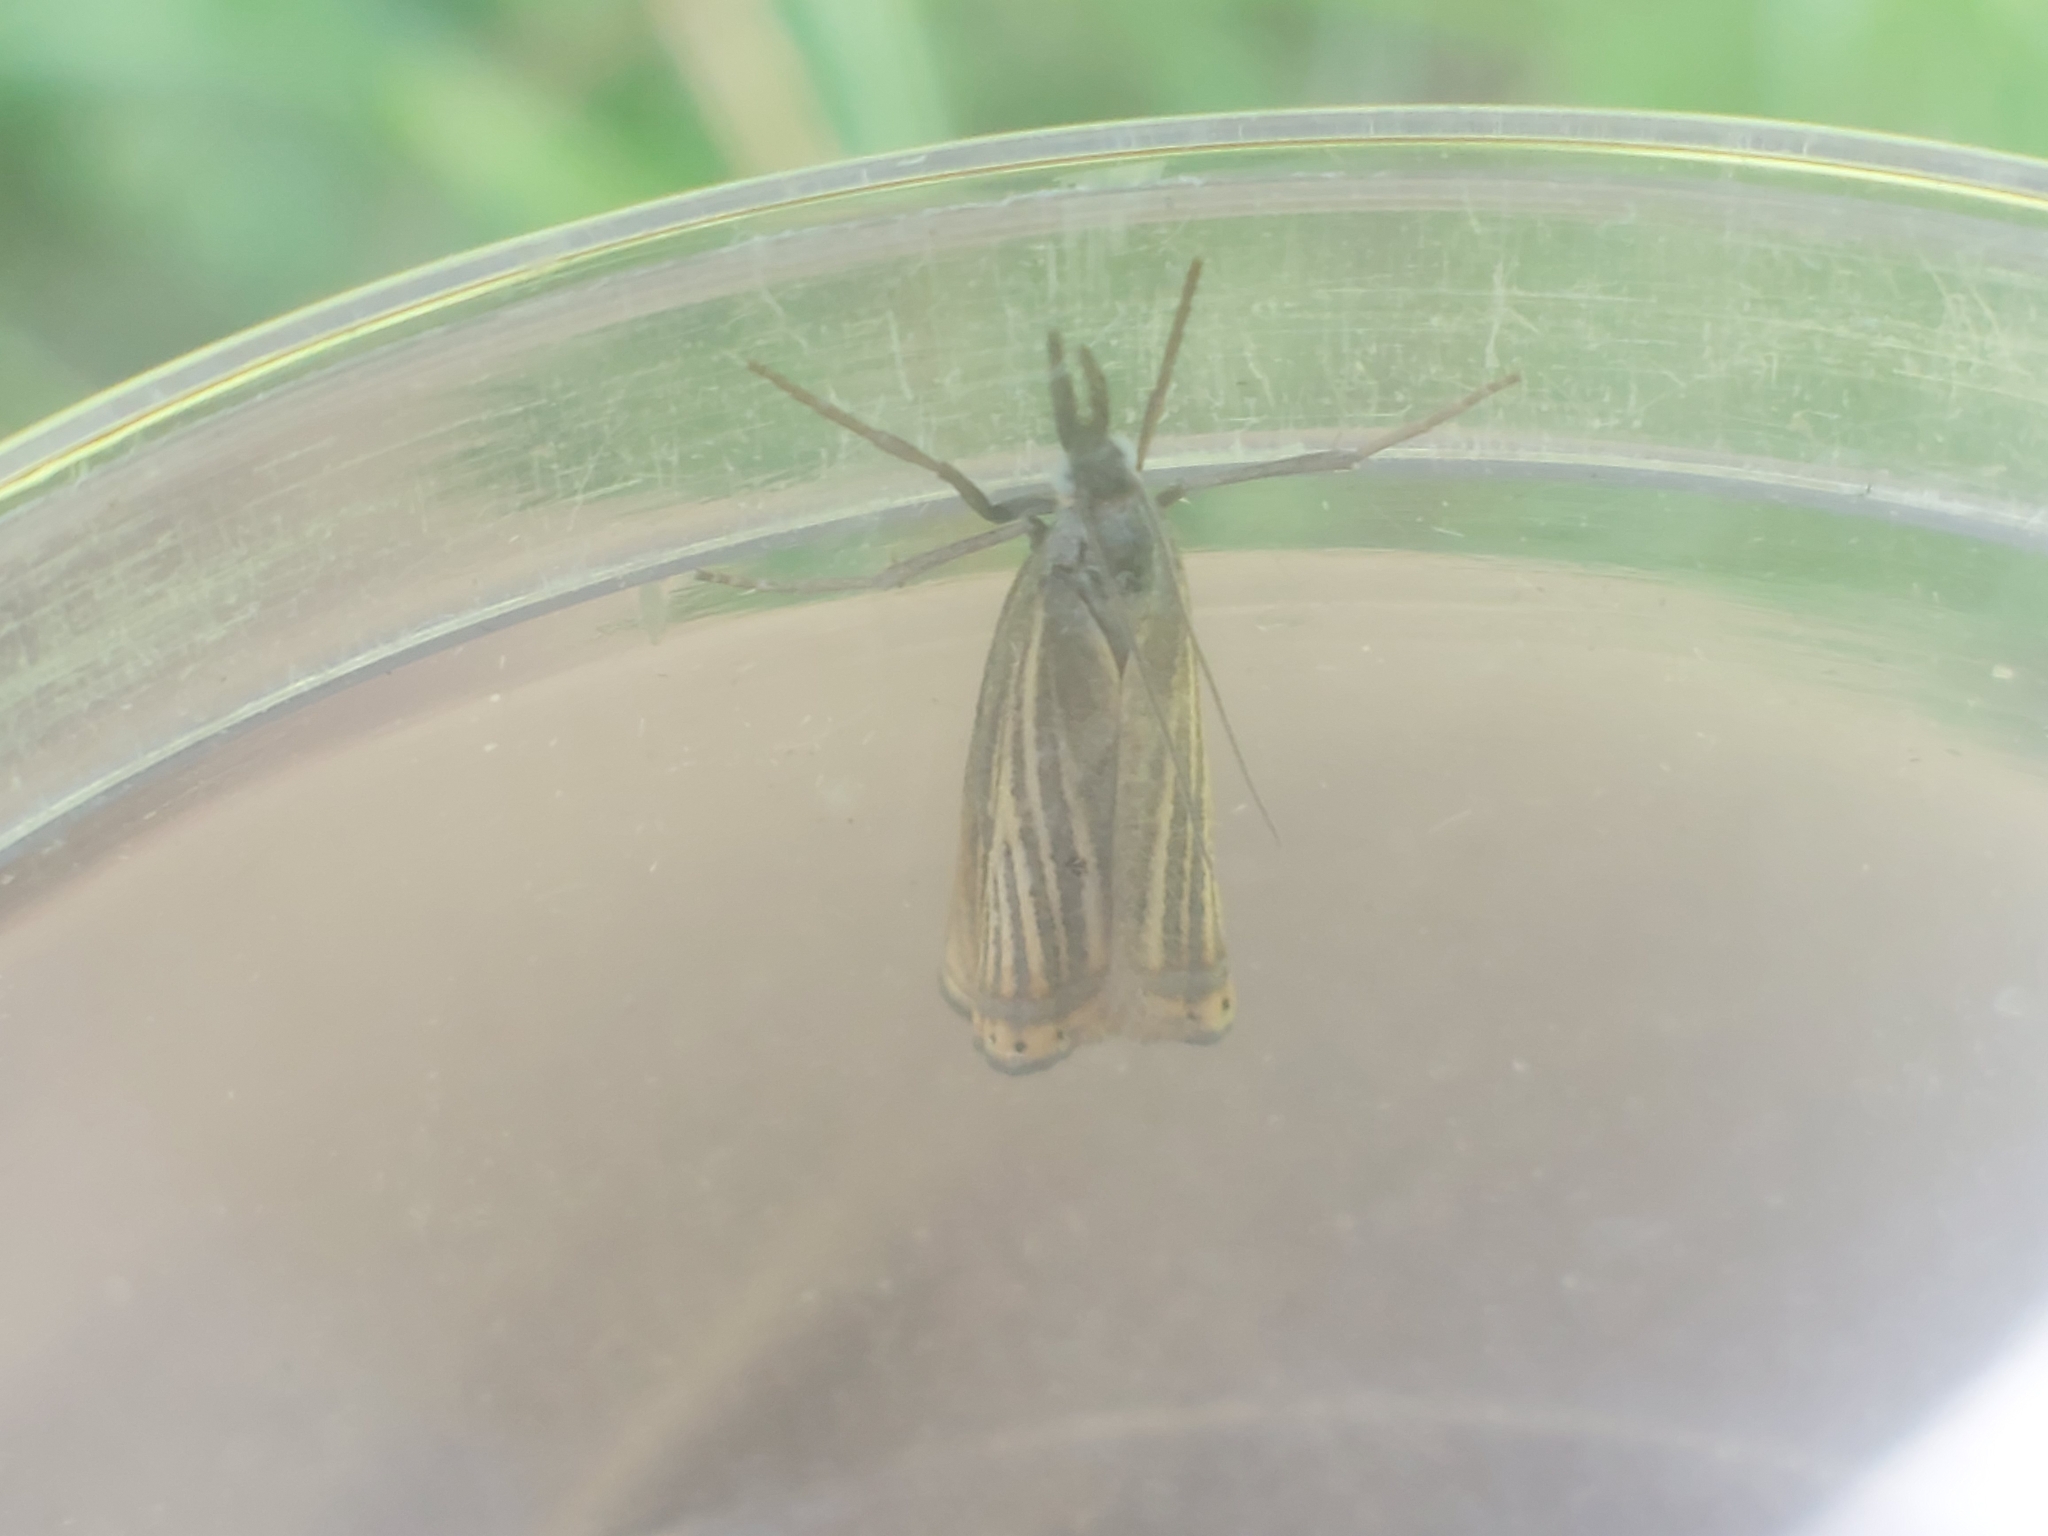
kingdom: Animalia
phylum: Arthropoda
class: Insecta
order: Lepidoptera
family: Crambidae
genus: Chrysoteuchia
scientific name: Chrysoteuchia culmella
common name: Garden grass-veneer
